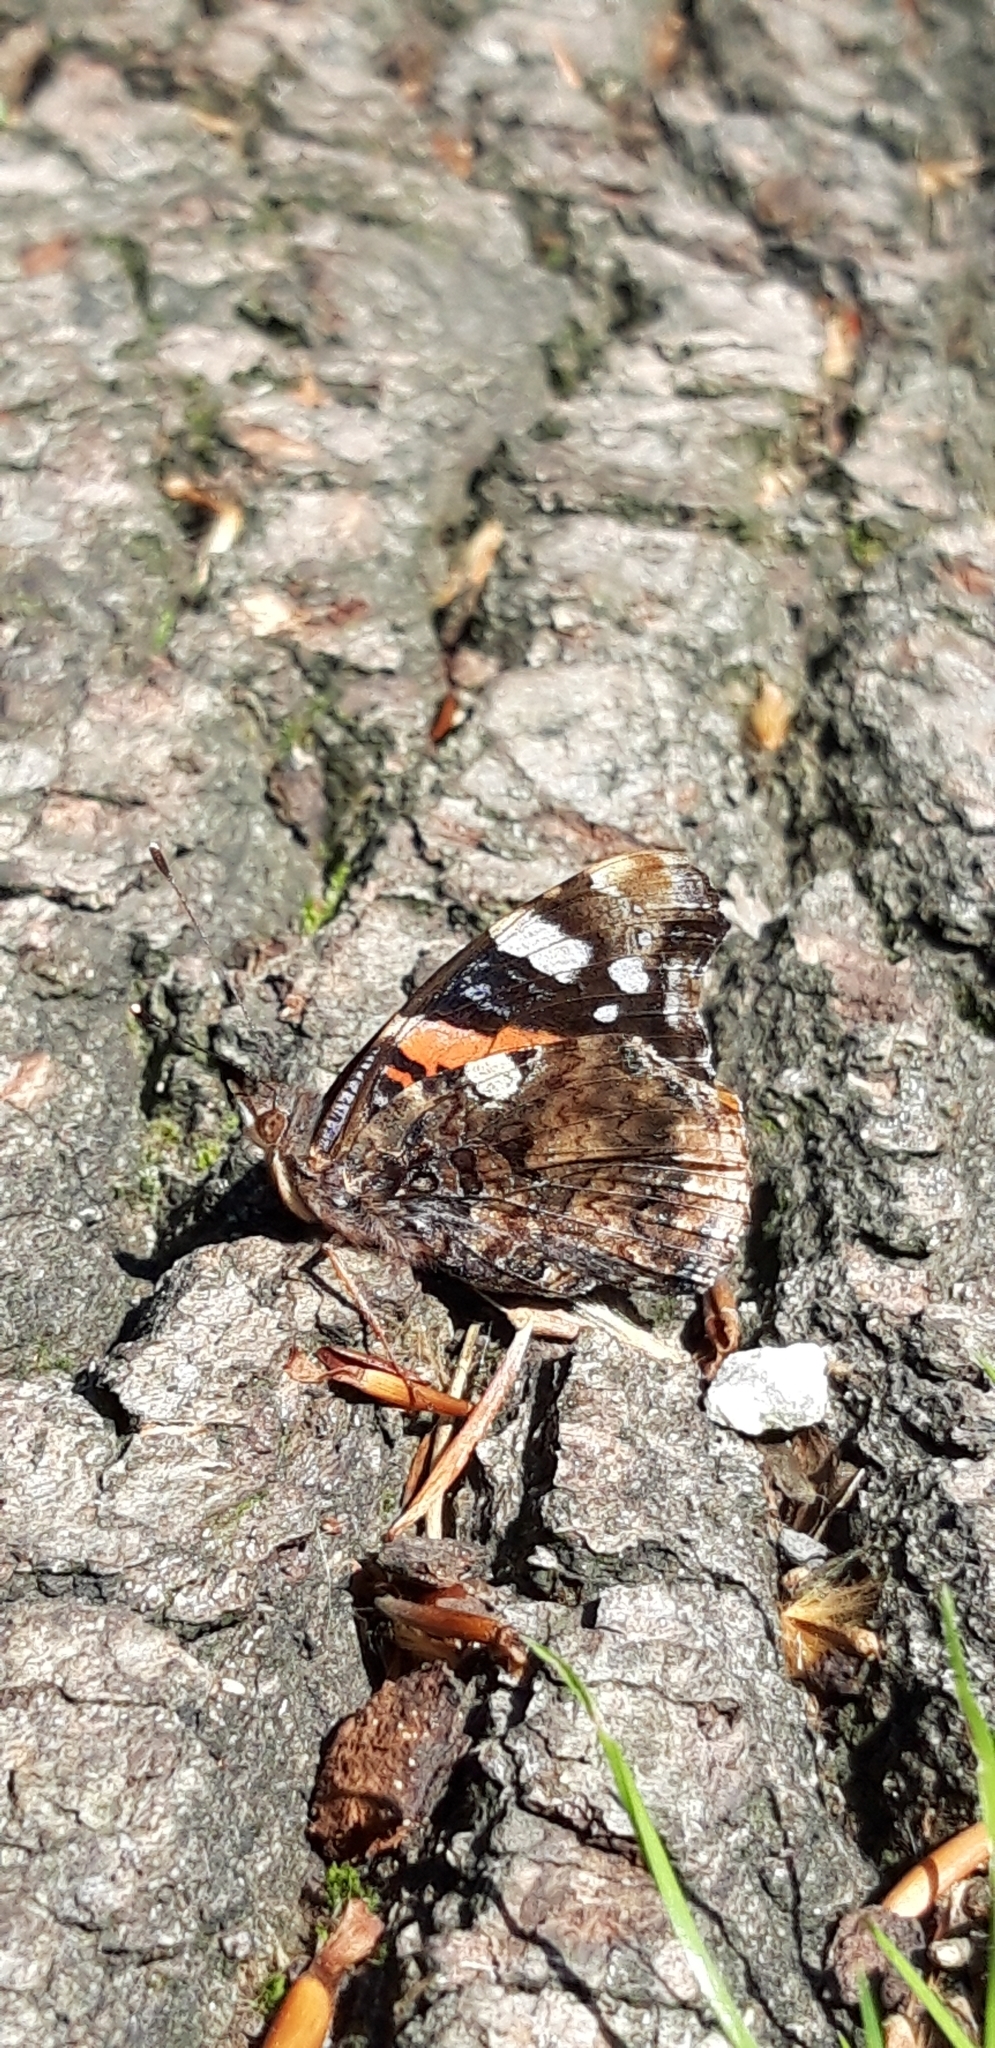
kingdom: Animalia
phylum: Arthropoda
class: Insecta
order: Lepidoptera
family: Nymphalidae
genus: Vanessa
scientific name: Vanessa atalanta
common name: Red admiral
